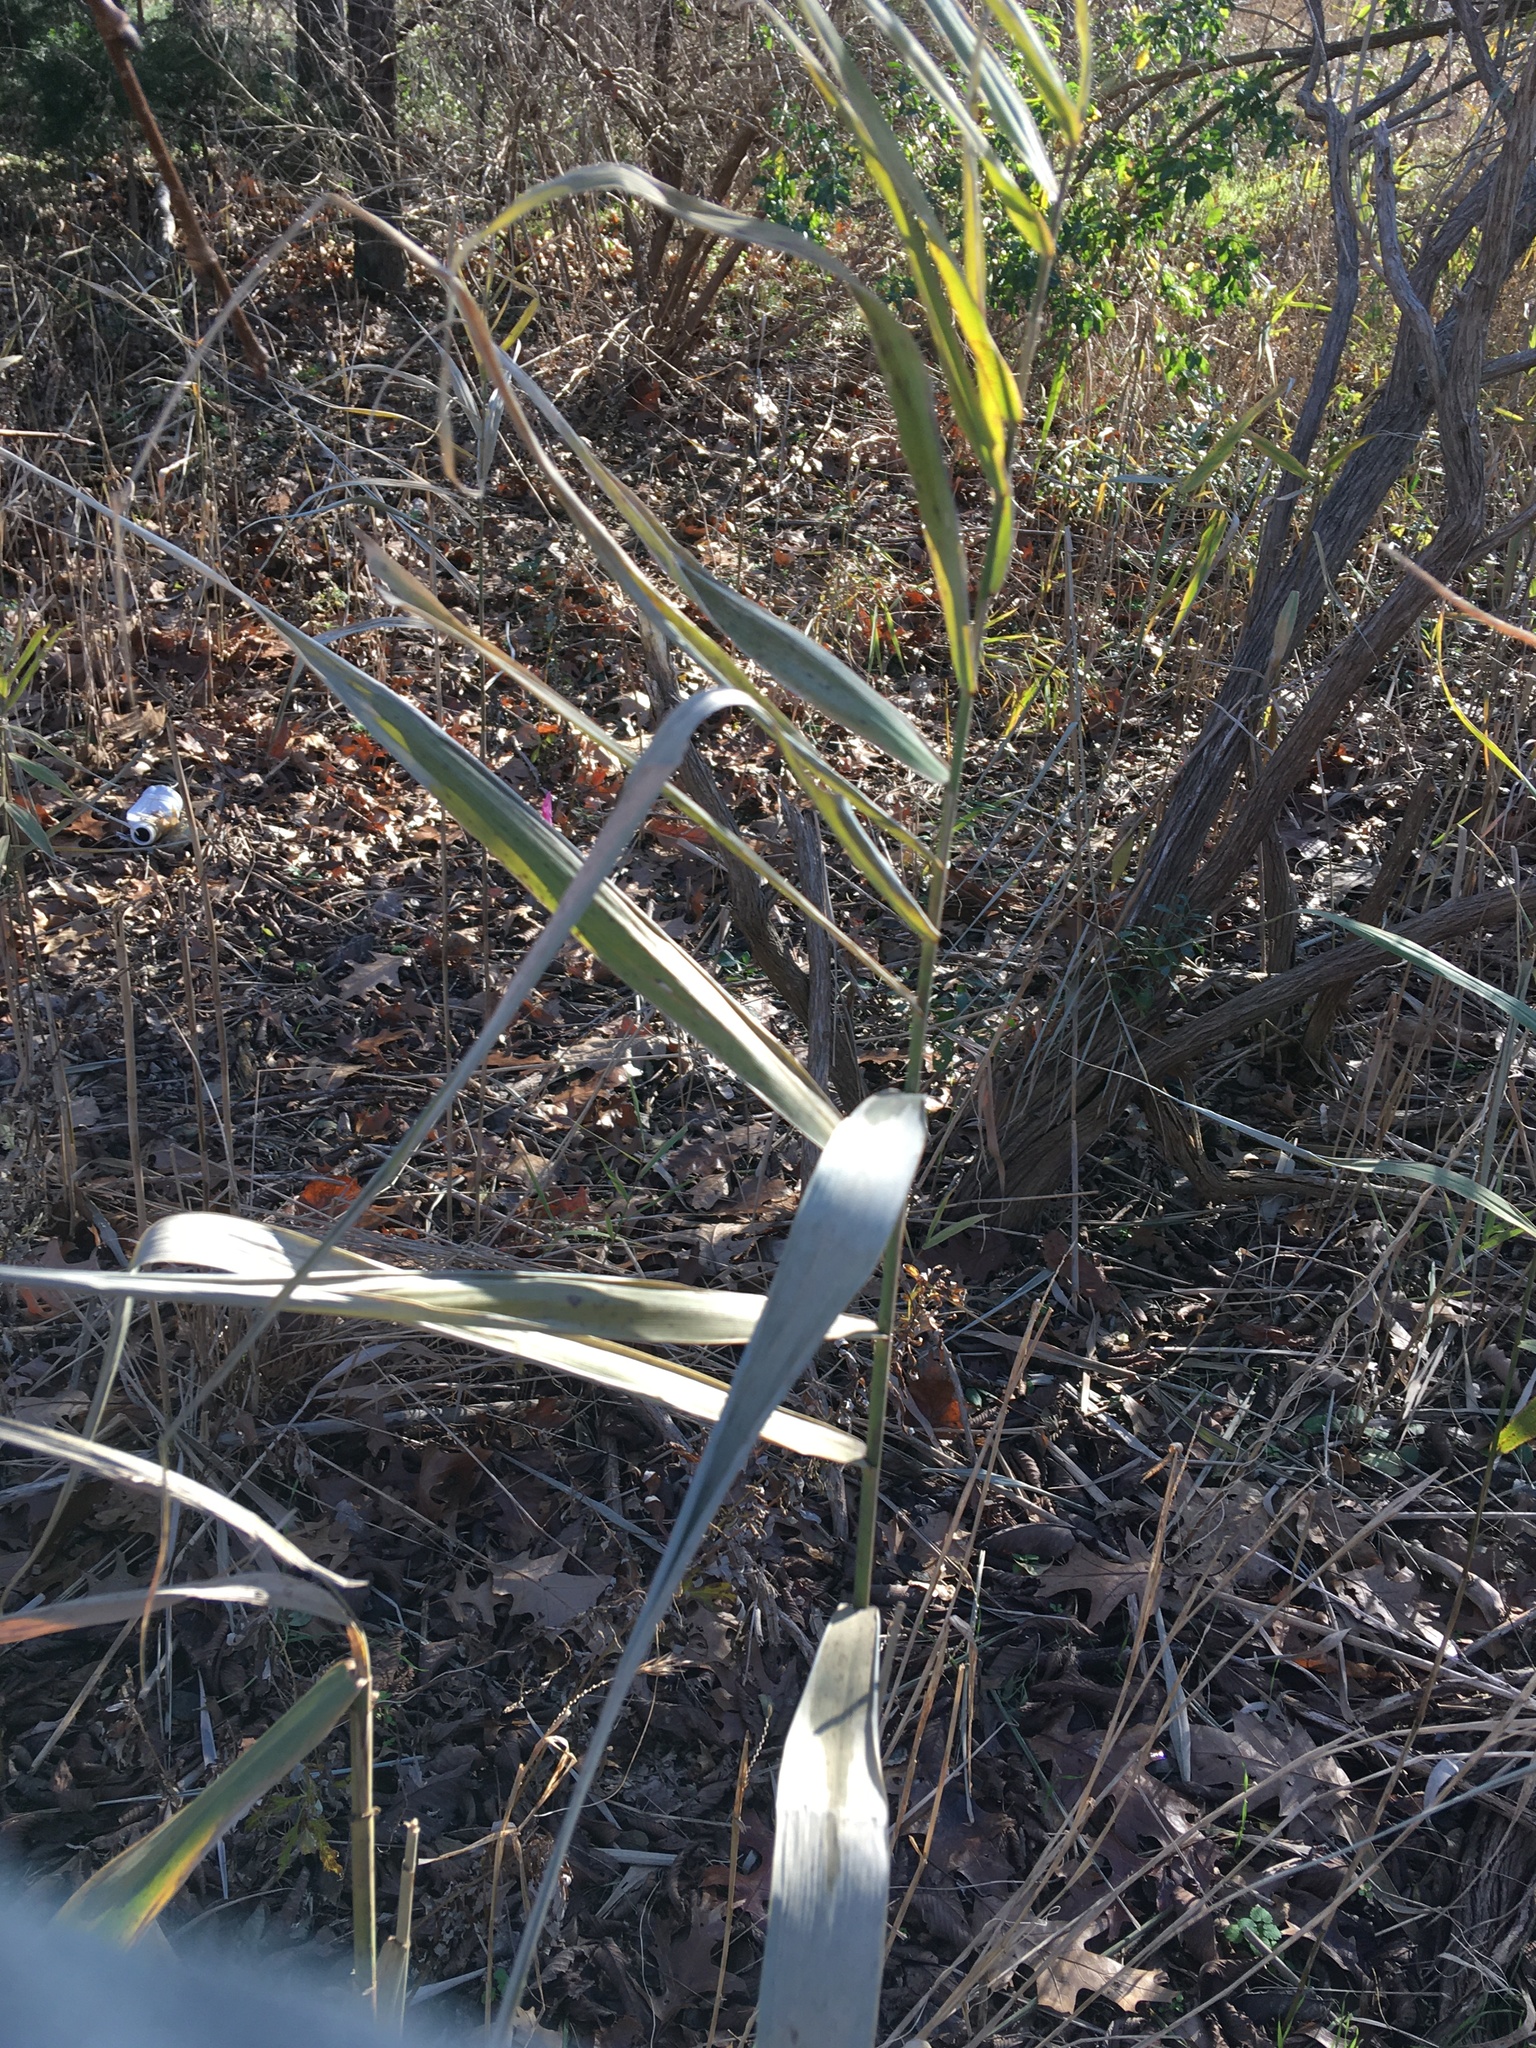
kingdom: Plantae
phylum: Tracheophyta
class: Liliopsida
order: Poales
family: Poaceae
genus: Phragmites
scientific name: Phragmites australis
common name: Common reed
